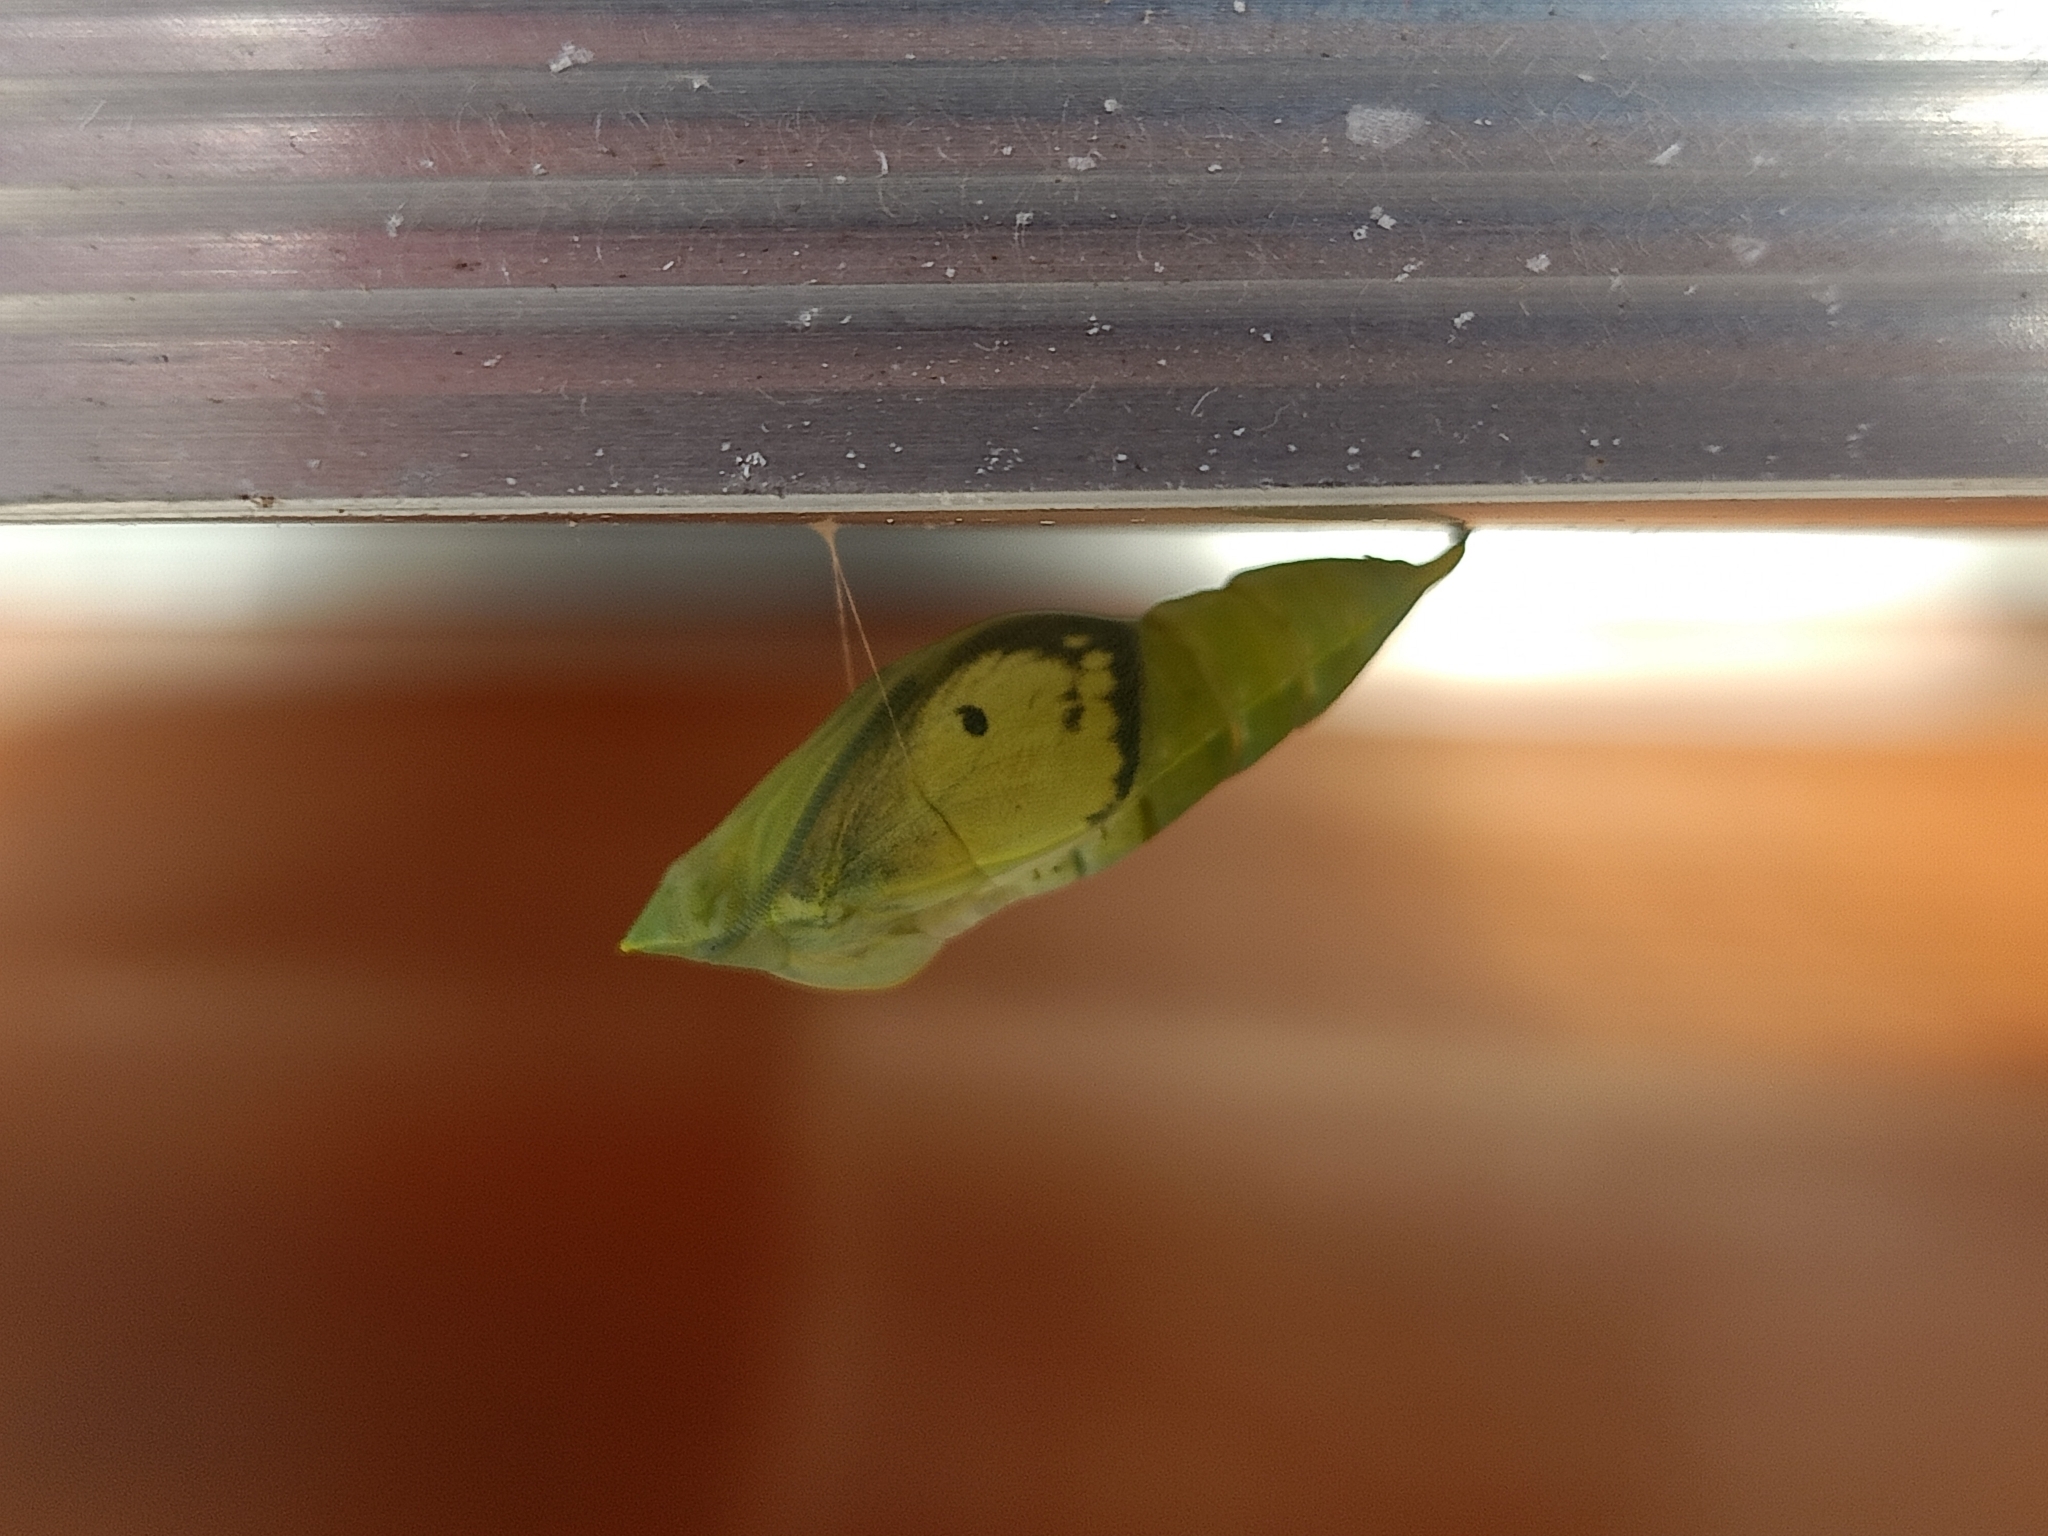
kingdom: Animalia
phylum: Arthropoda
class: Insecta
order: Lepidoptera
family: Pieridae
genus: Catopsilia
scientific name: Catopsilia pyranthe
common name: Mottled emigrant
